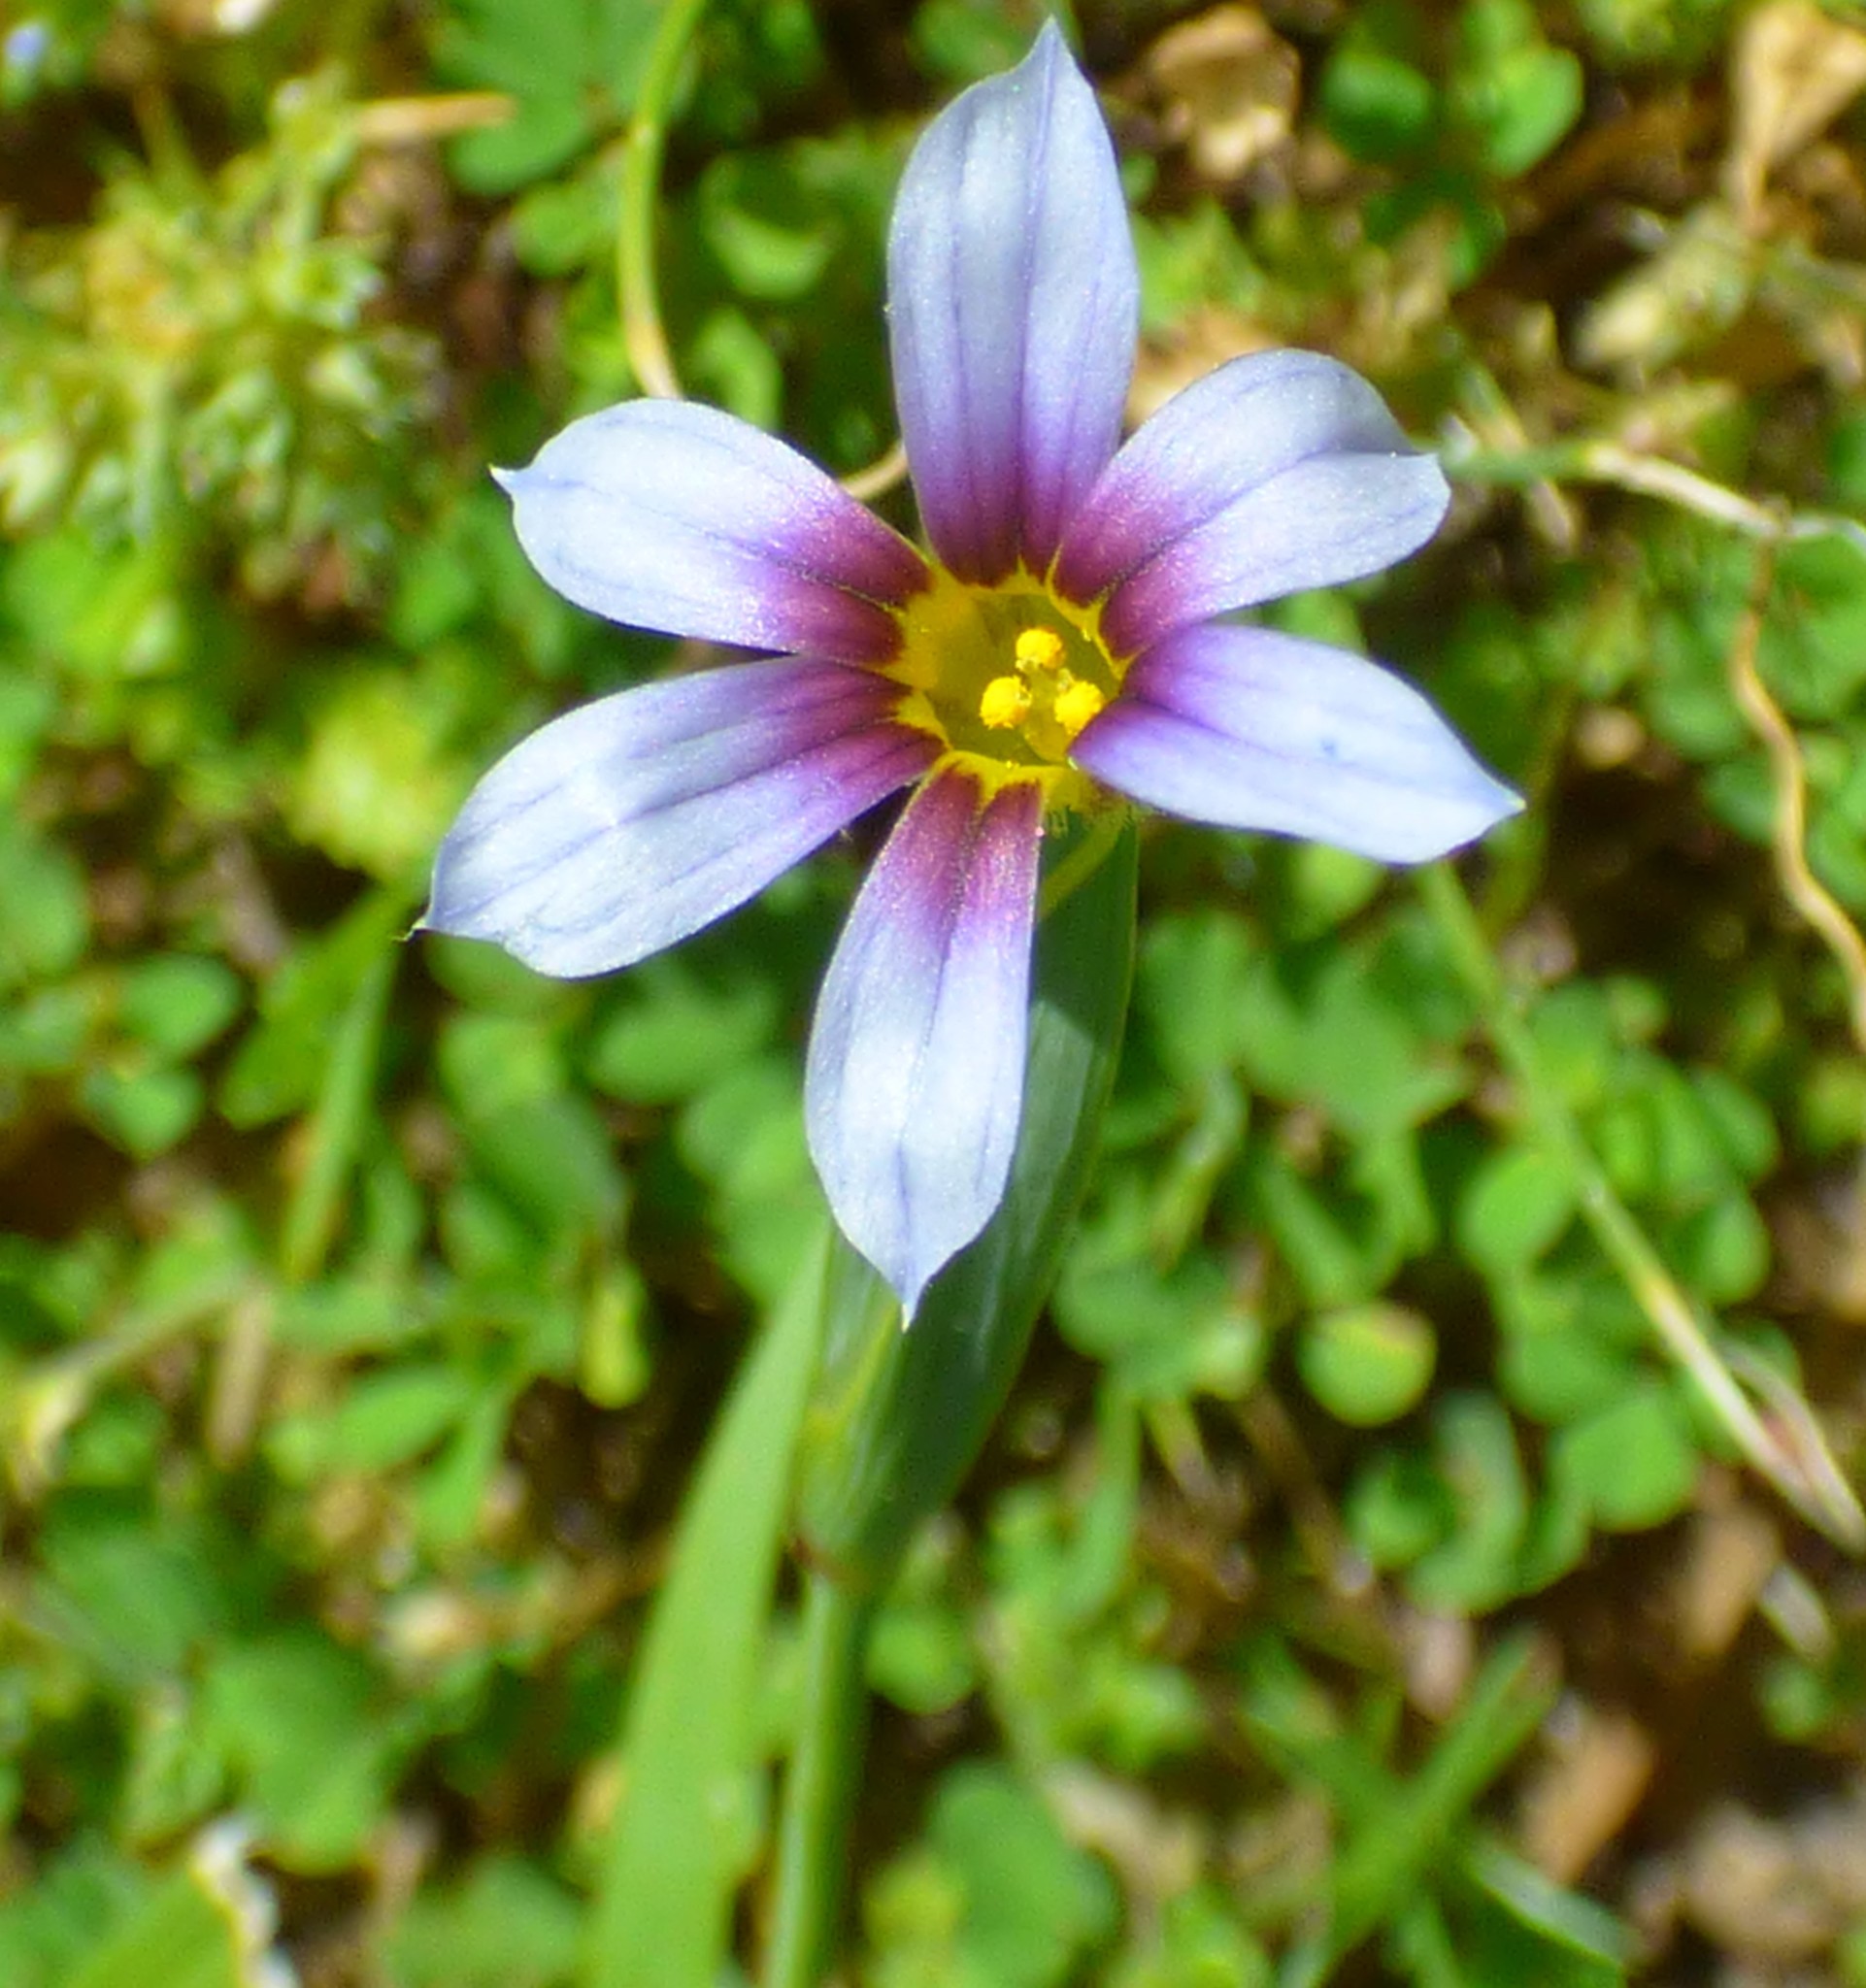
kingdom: Plantae
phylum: Tracheophyta
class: Liliopsida
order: Asparagales
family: Iridaceae
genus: Sisyrinchium
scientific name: Sisyrinchium micranthum
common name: Bermuda pigroot
